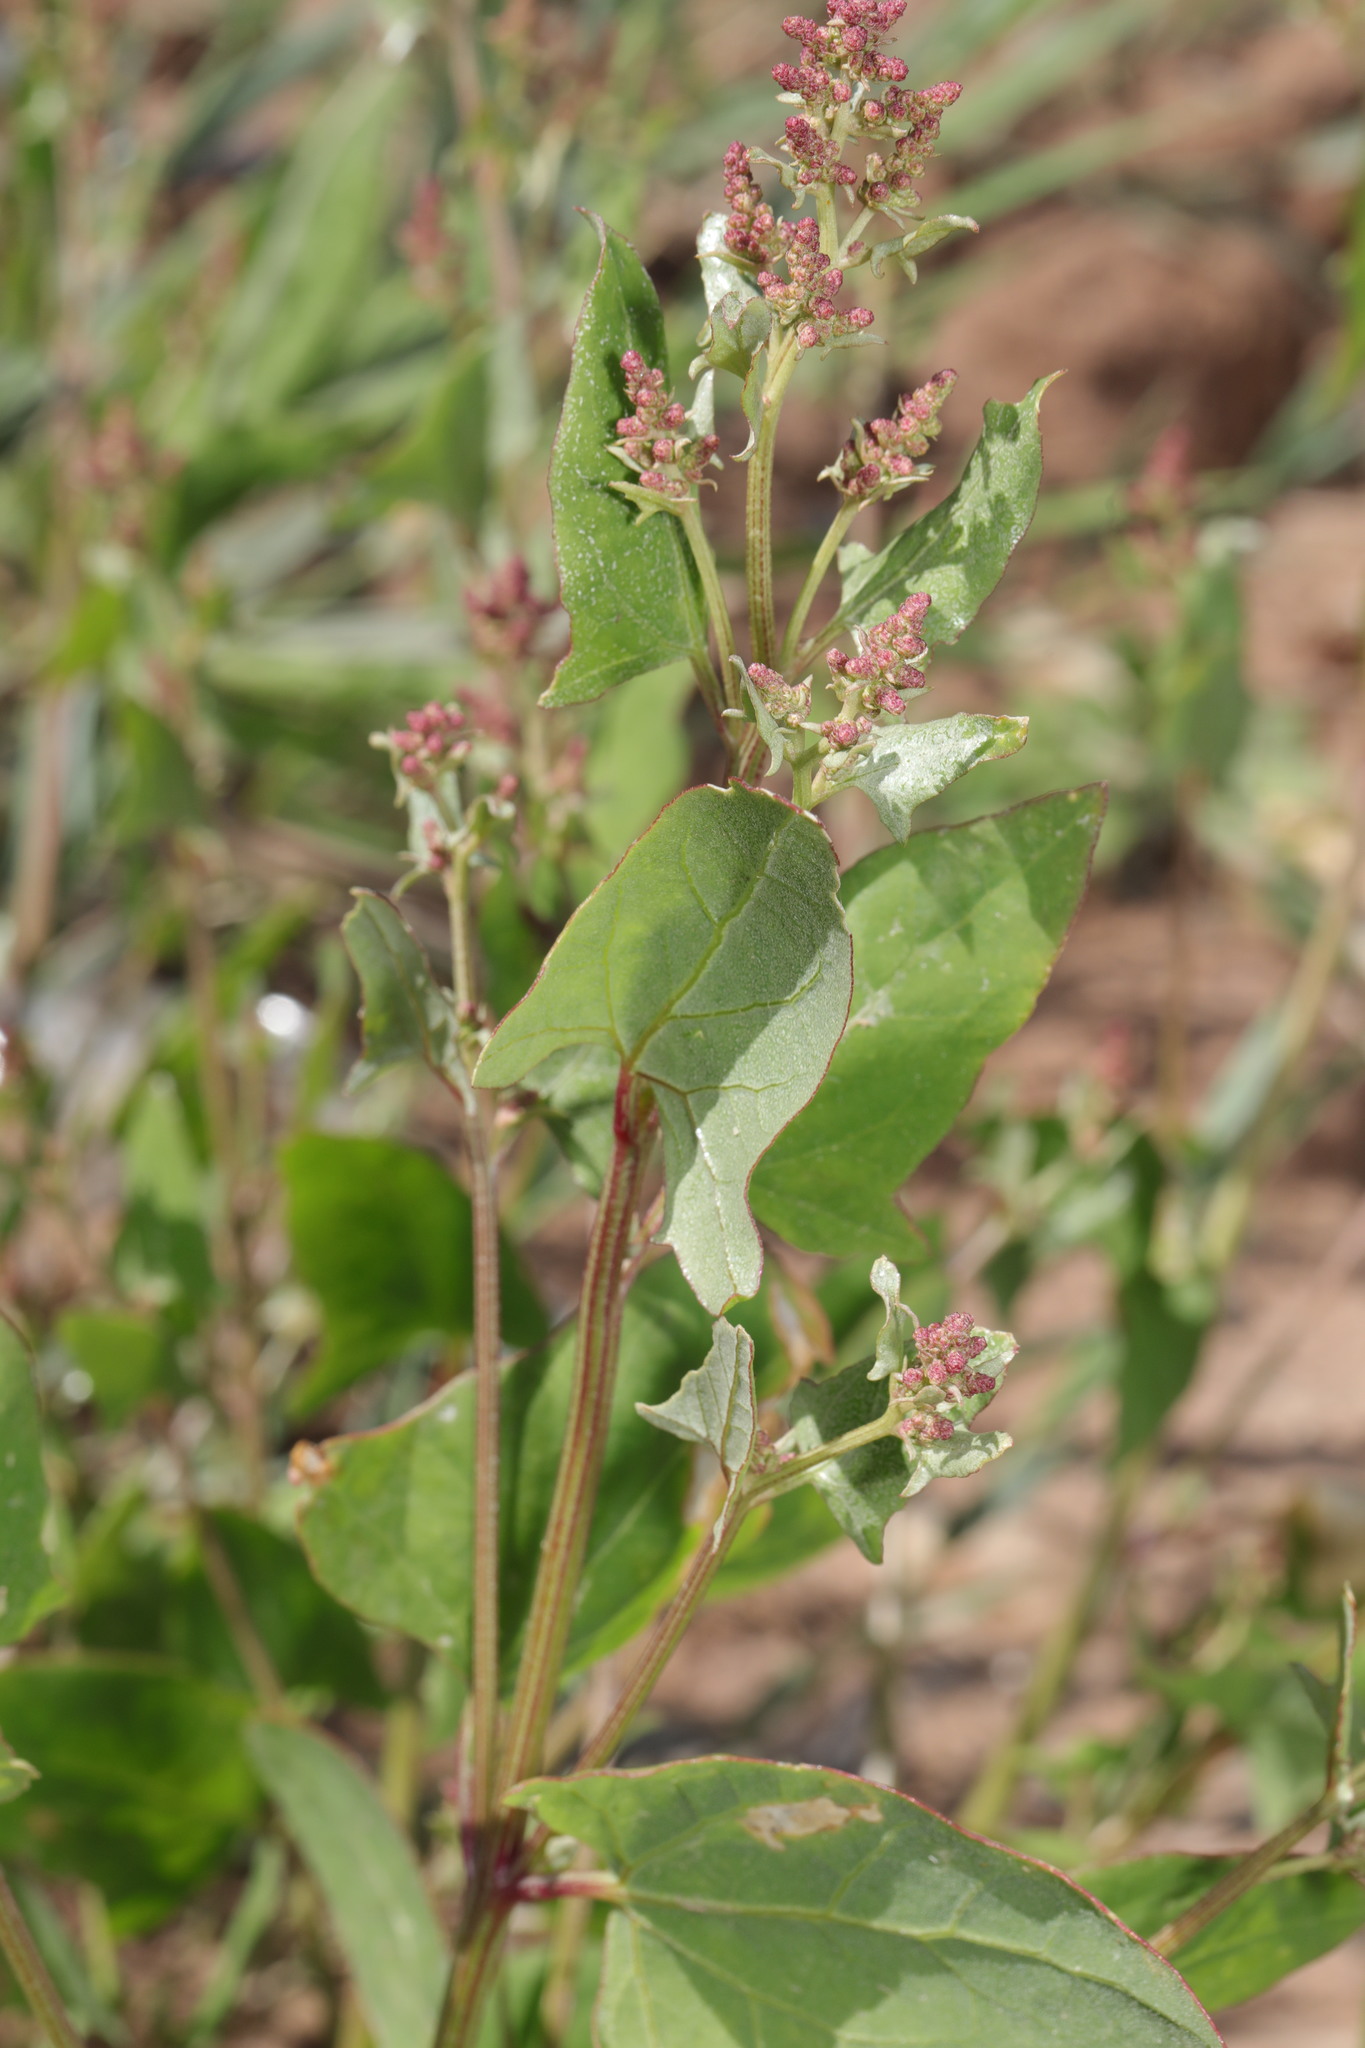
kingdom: Plantae
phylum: Tracheophyta
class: Magnoliopsida
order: Caryophyllales
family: Amaranthaceae
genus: Atriplex
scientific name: Atriplex prostrata
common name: Spear-leaved orache
